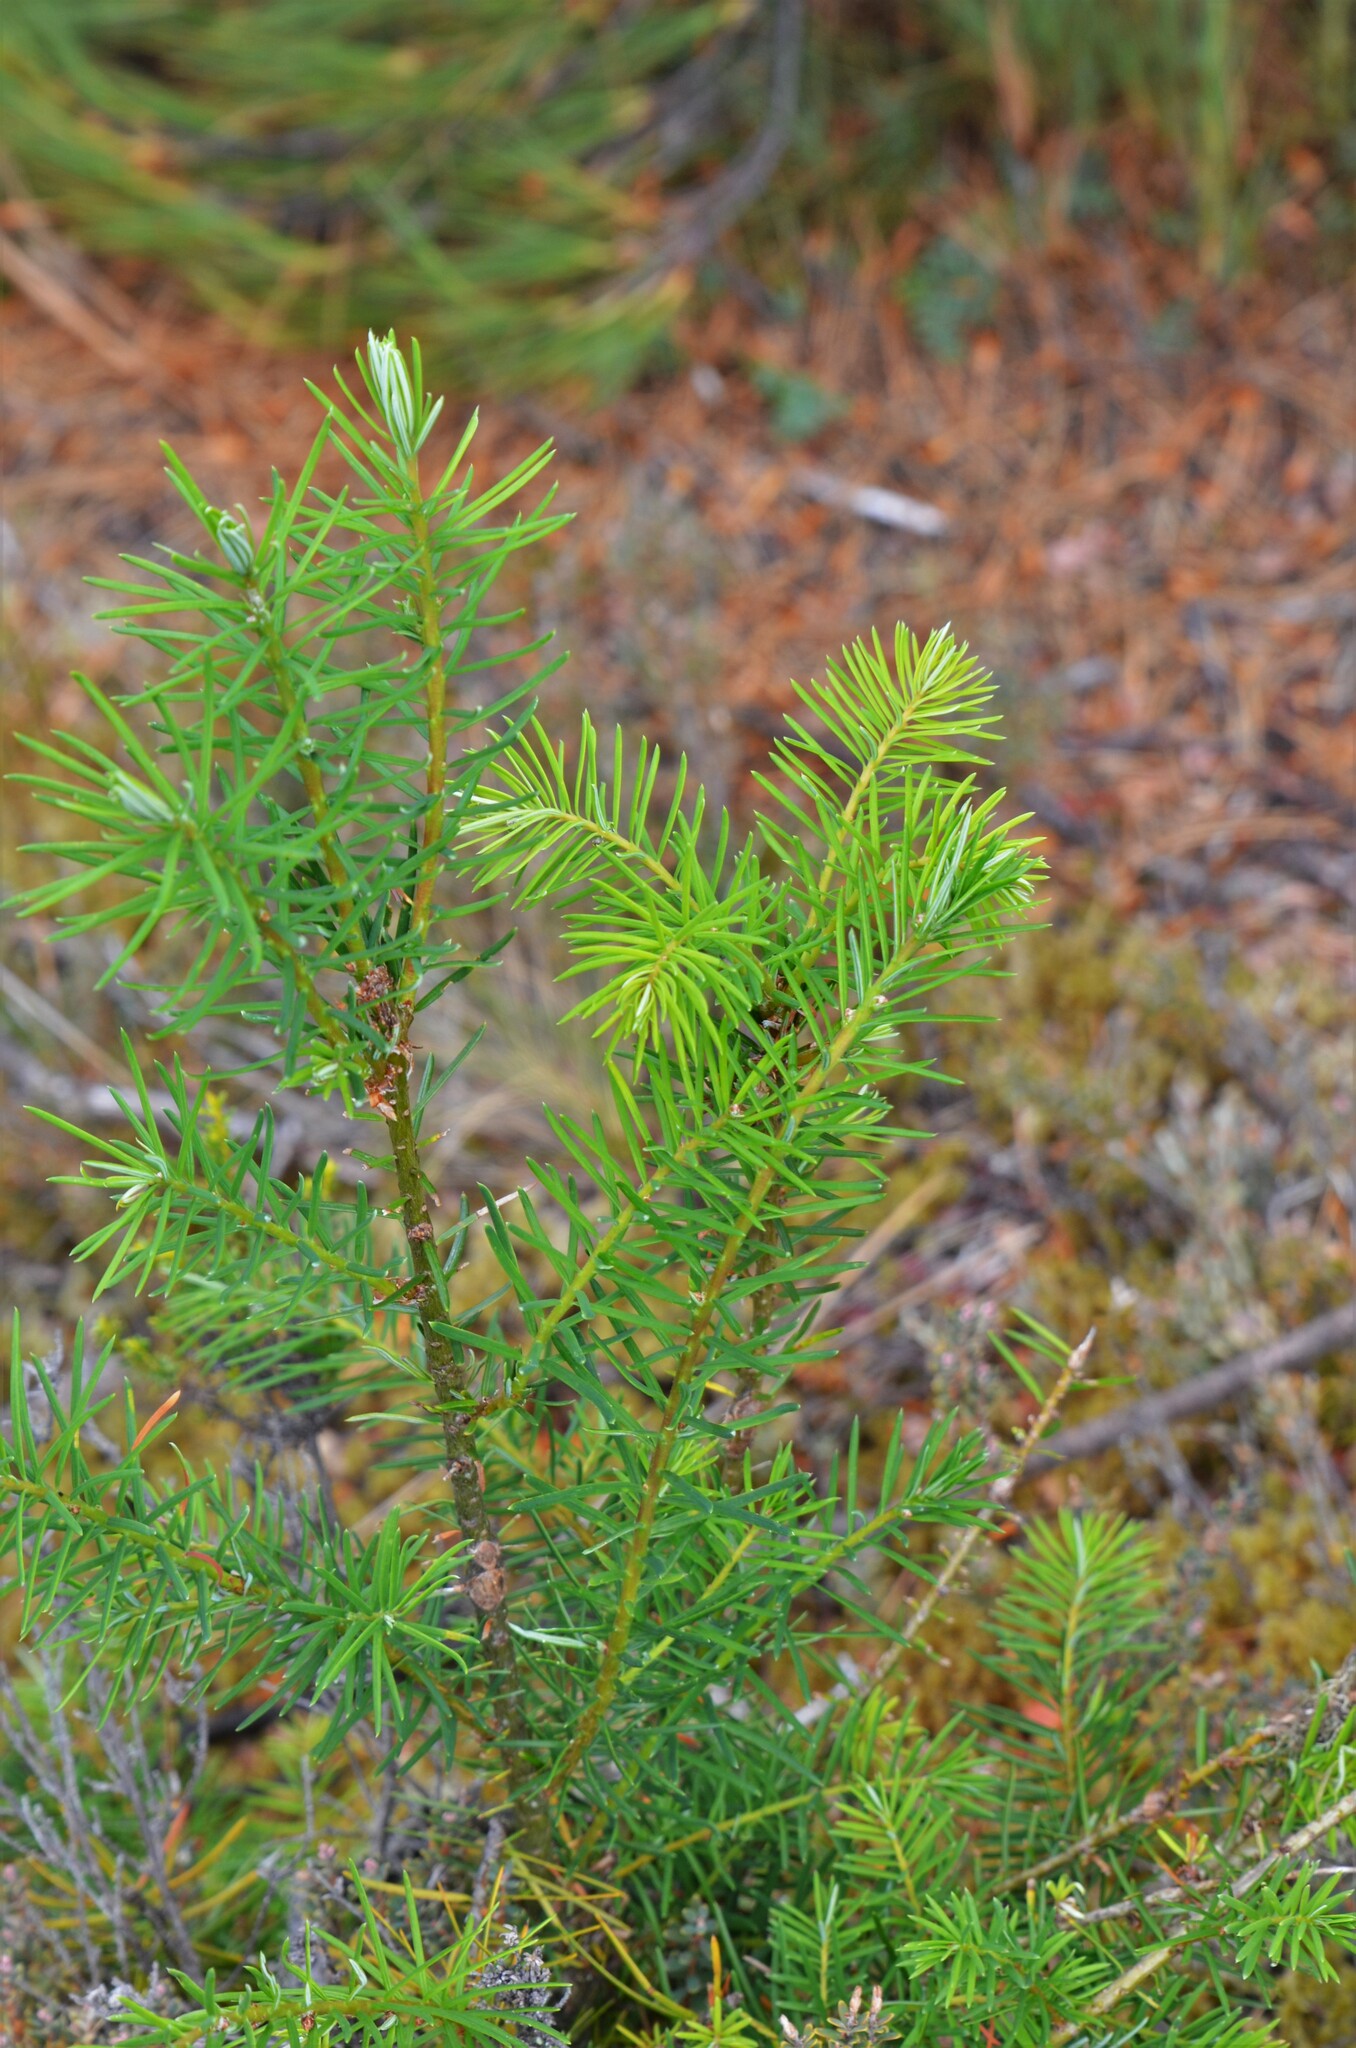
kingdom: Plantae
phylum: Tracheophyta
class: Pinopsida
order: Pinales
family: Pinaceae
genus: Pseudotsuga
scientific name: Pseudotsuga menziesii
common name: Douglas fir
